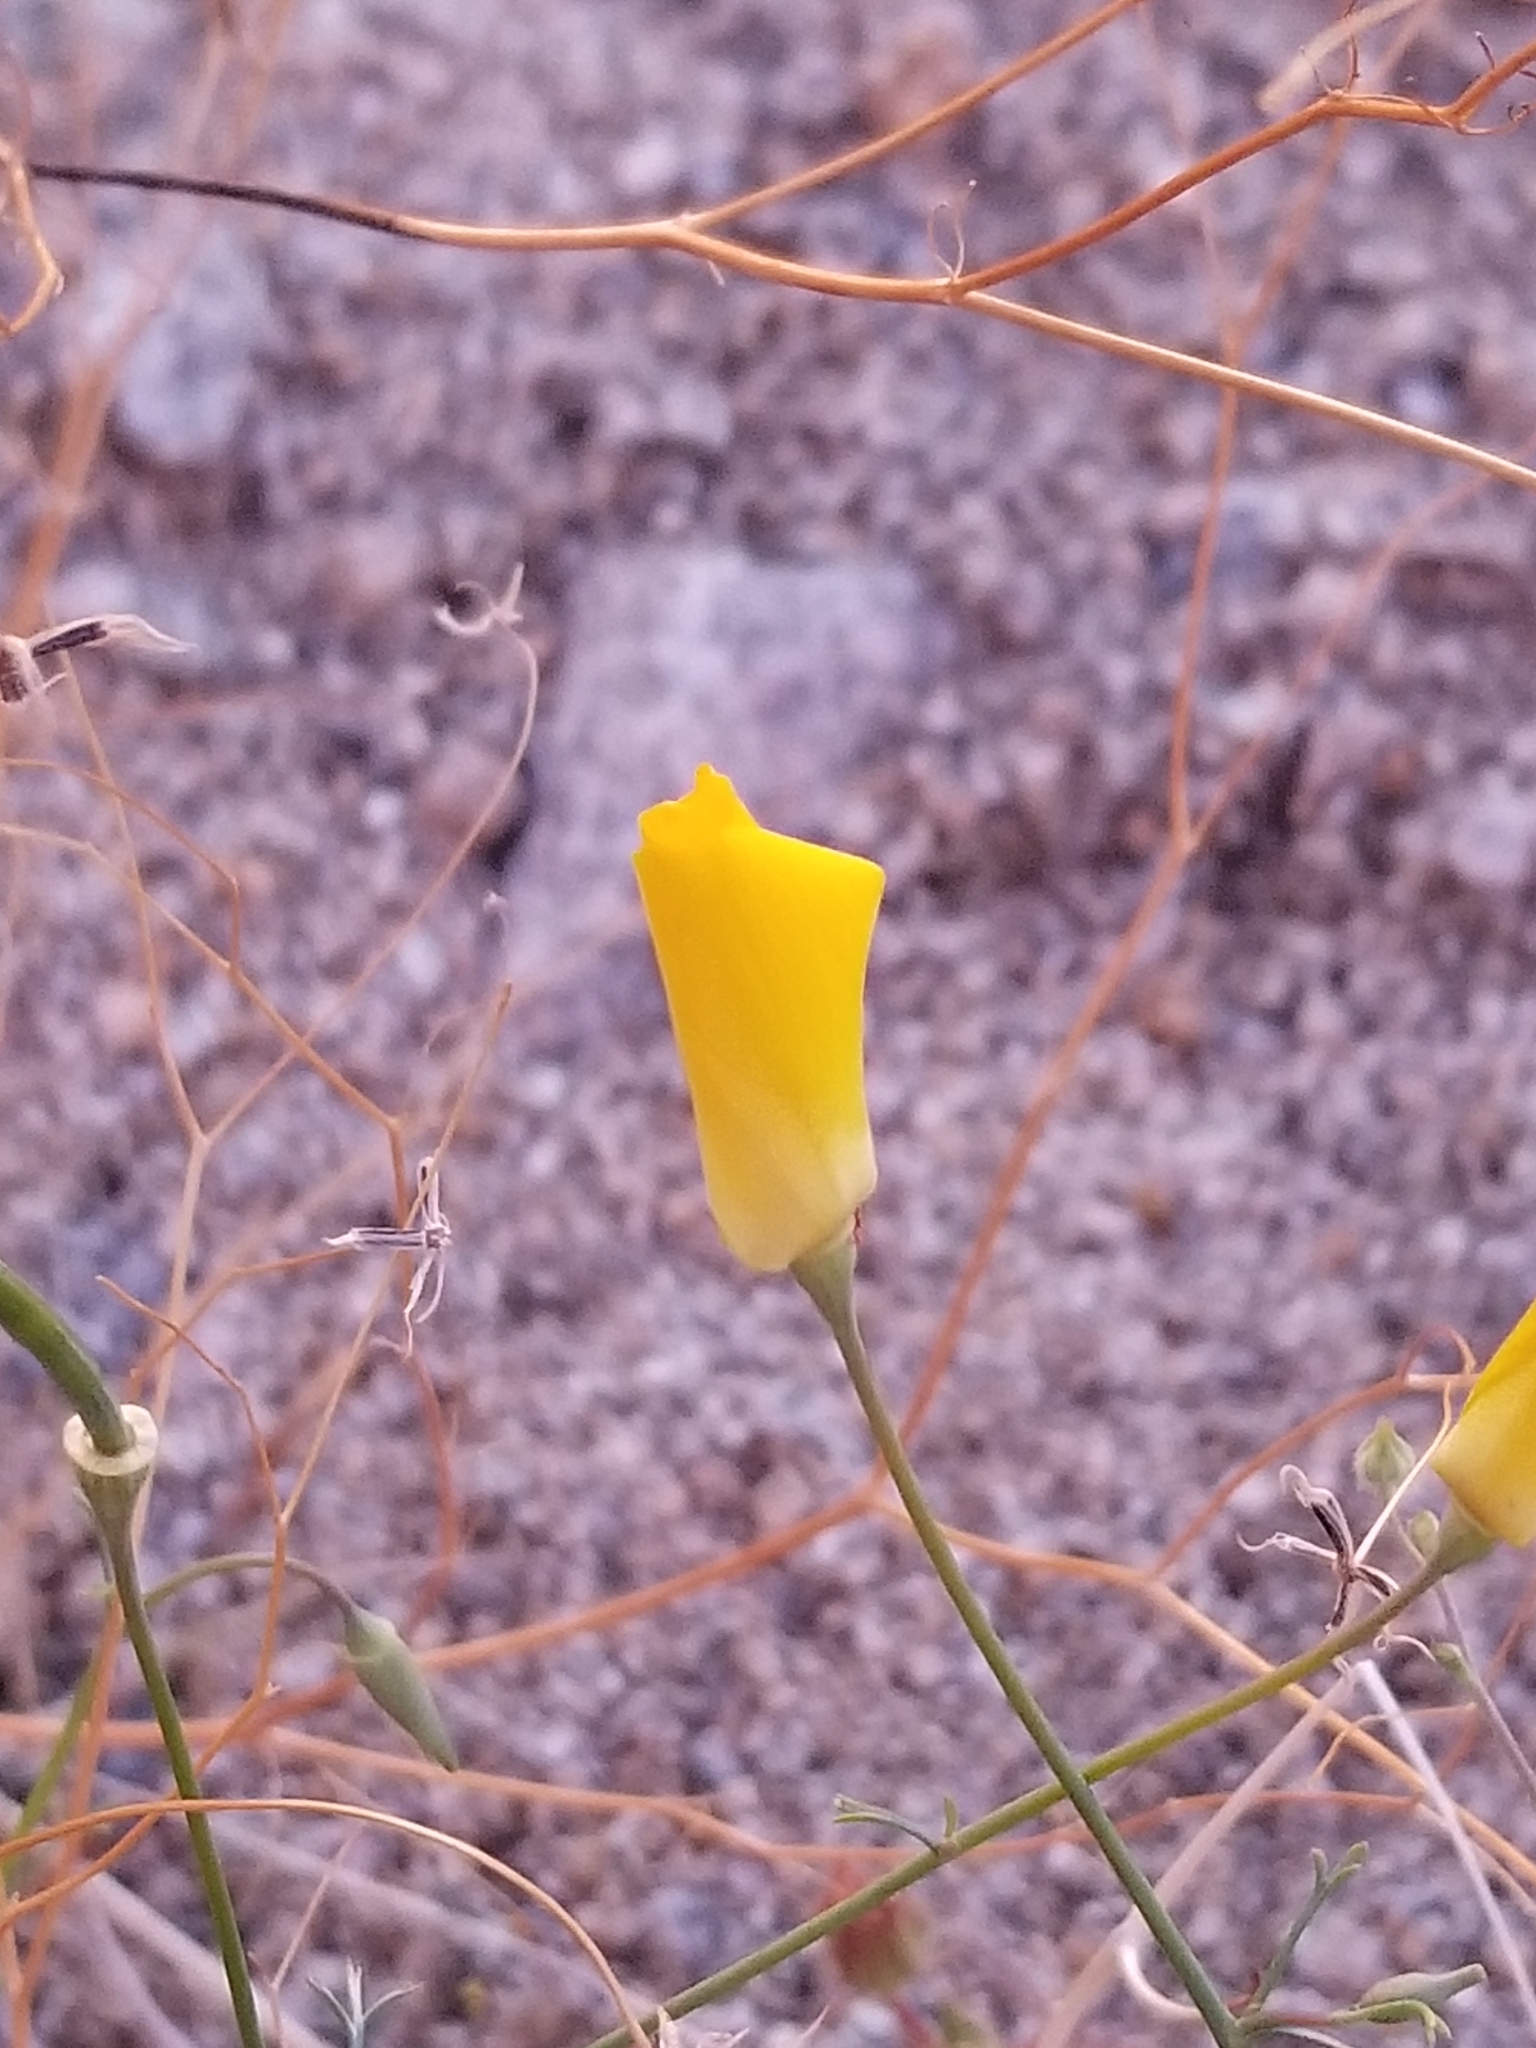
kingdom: Plantae
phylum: Tracheophyta
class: Magnoliopsida
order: Ranunculales
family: Papaveraceae
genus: Eschscholzia
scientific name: Eschscholzia papastillii
